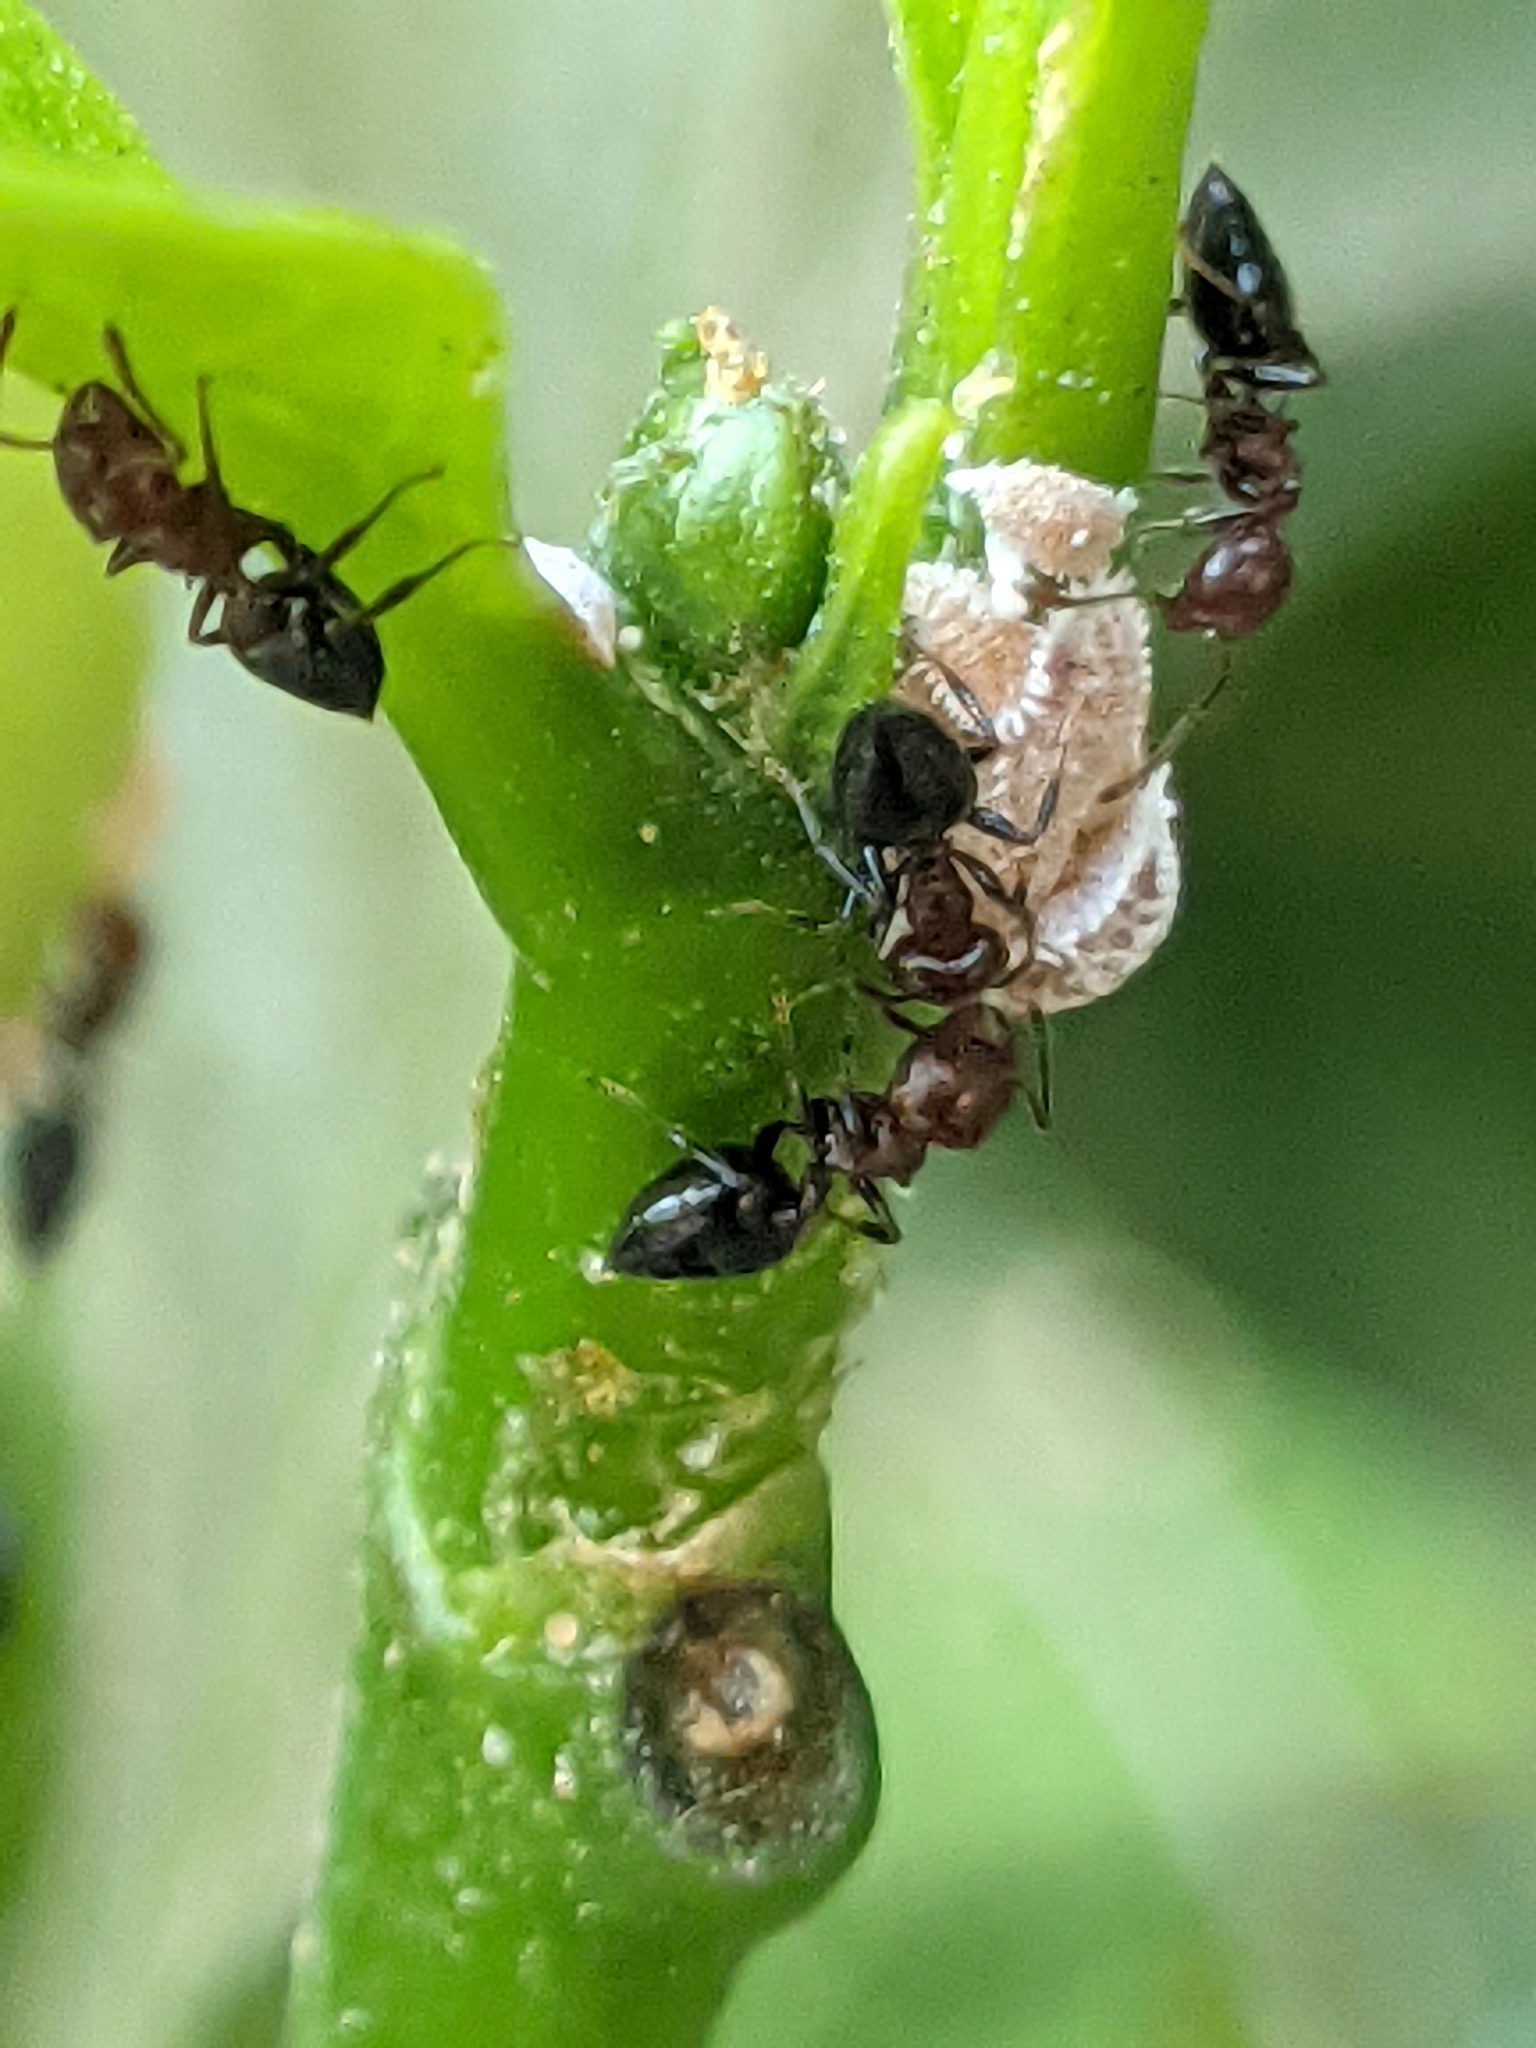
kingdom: Animalia
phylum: Arthropoda
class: Insecta
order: Hymenoptera
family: Formicidae
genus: Crematogaster
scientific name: Crematogaster subnuda
